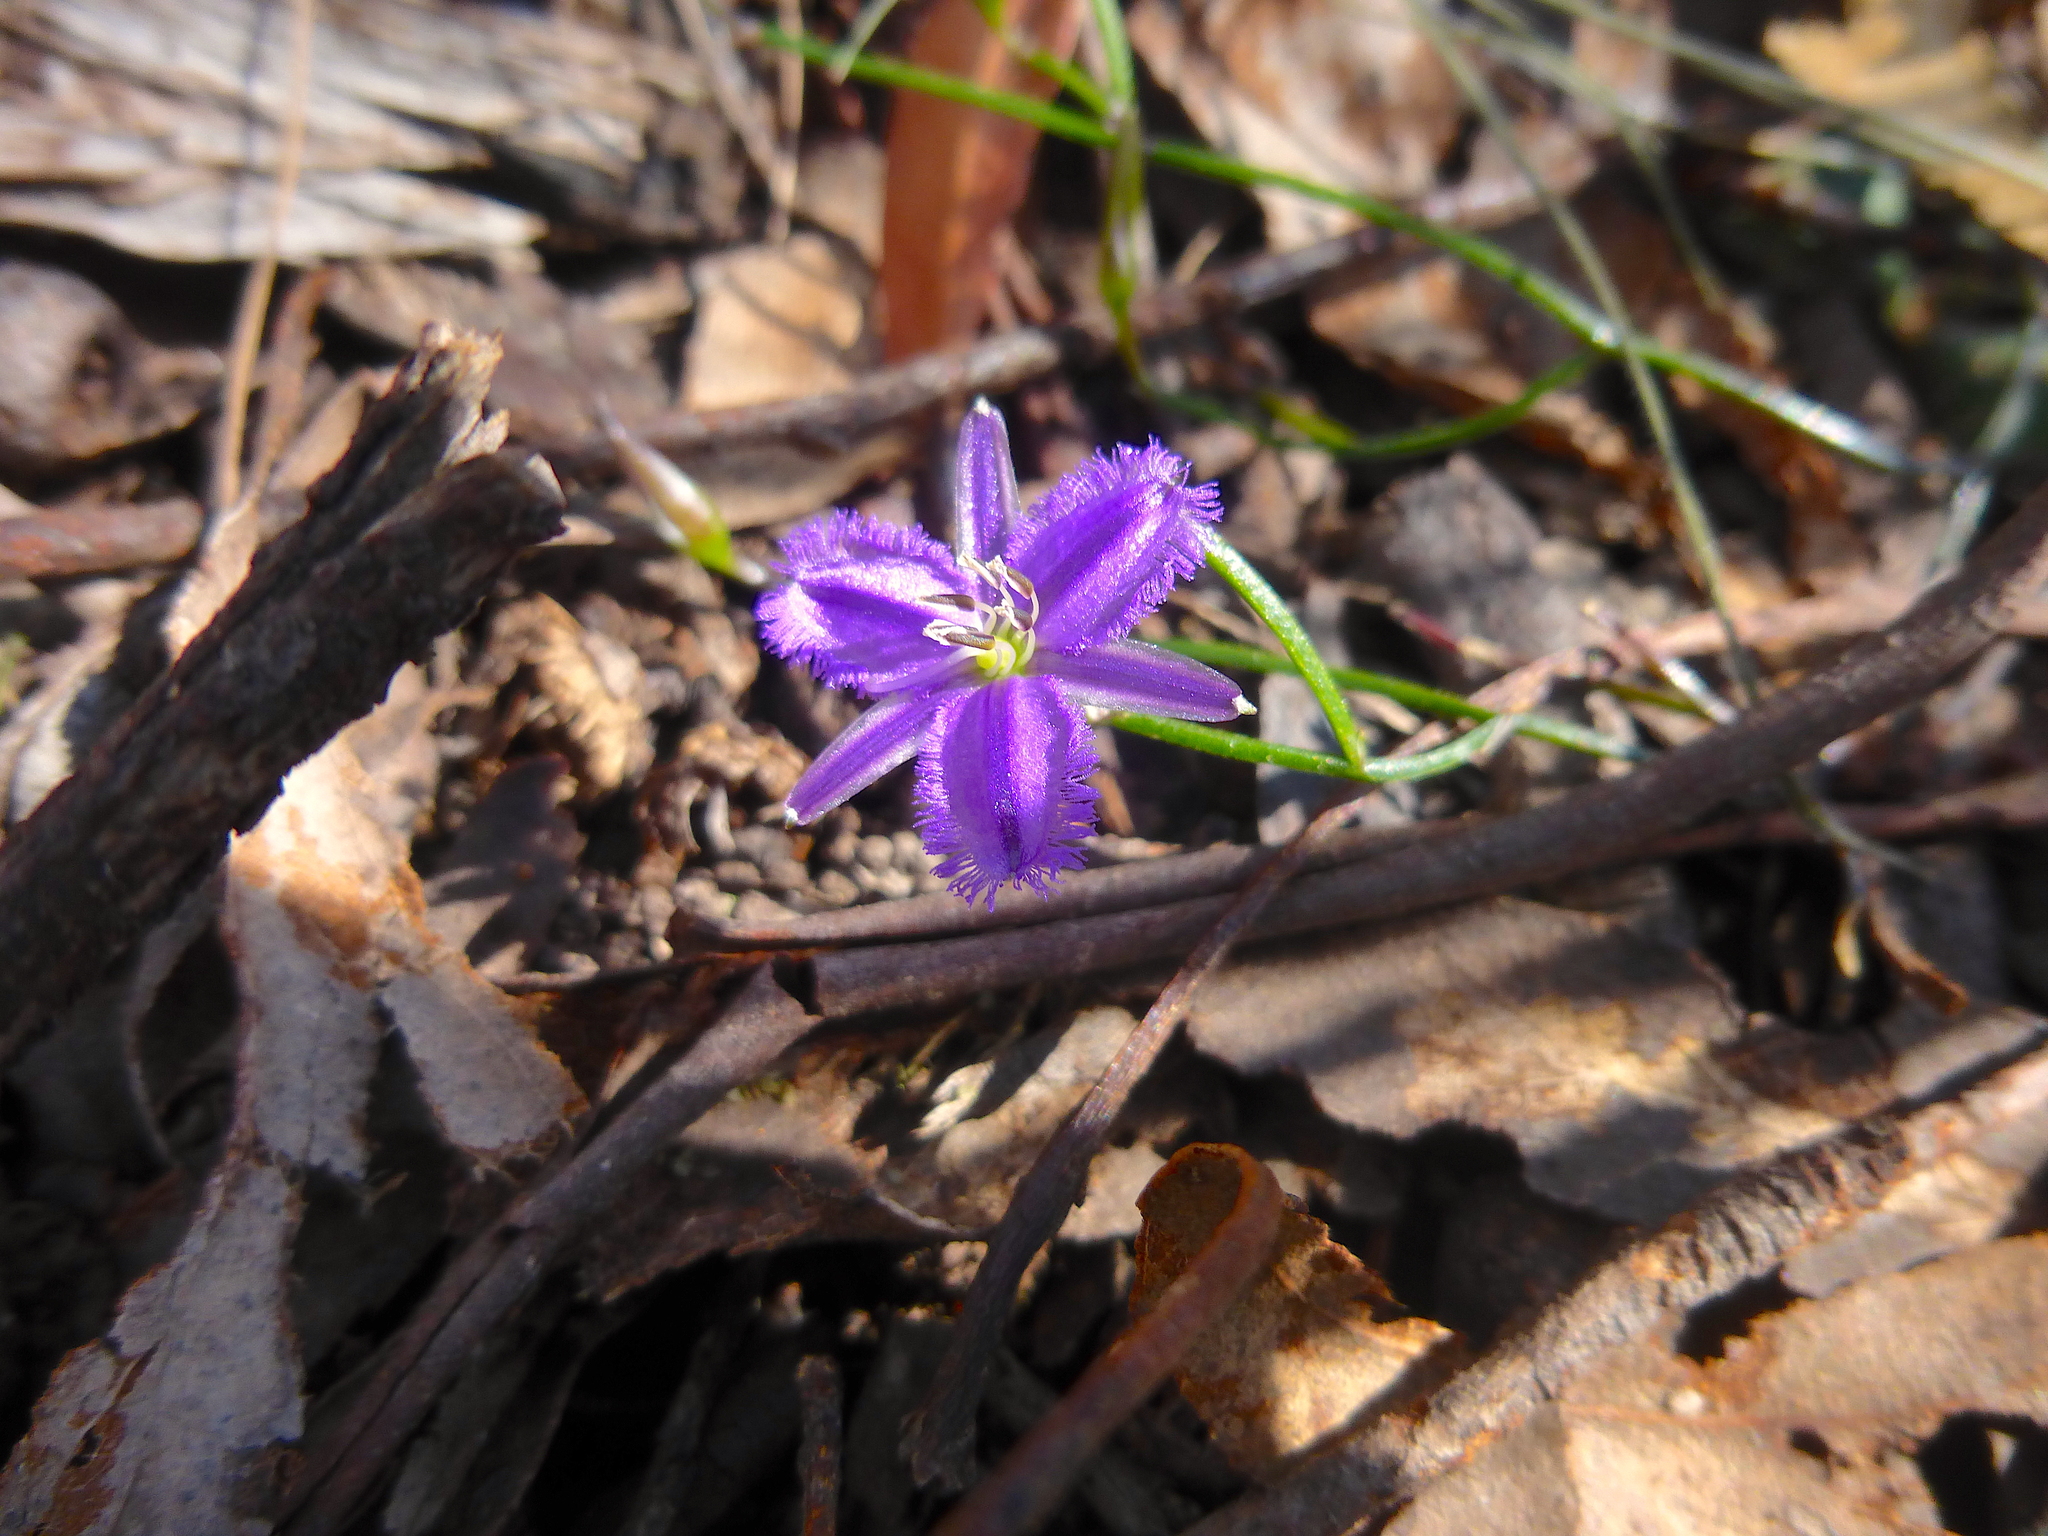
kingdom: Plantae
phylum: Tracheophyta
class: Liliopsida
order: Asparagales
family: Asparagaceae
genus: Thysanotus
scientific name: Thysanotus patersonii
